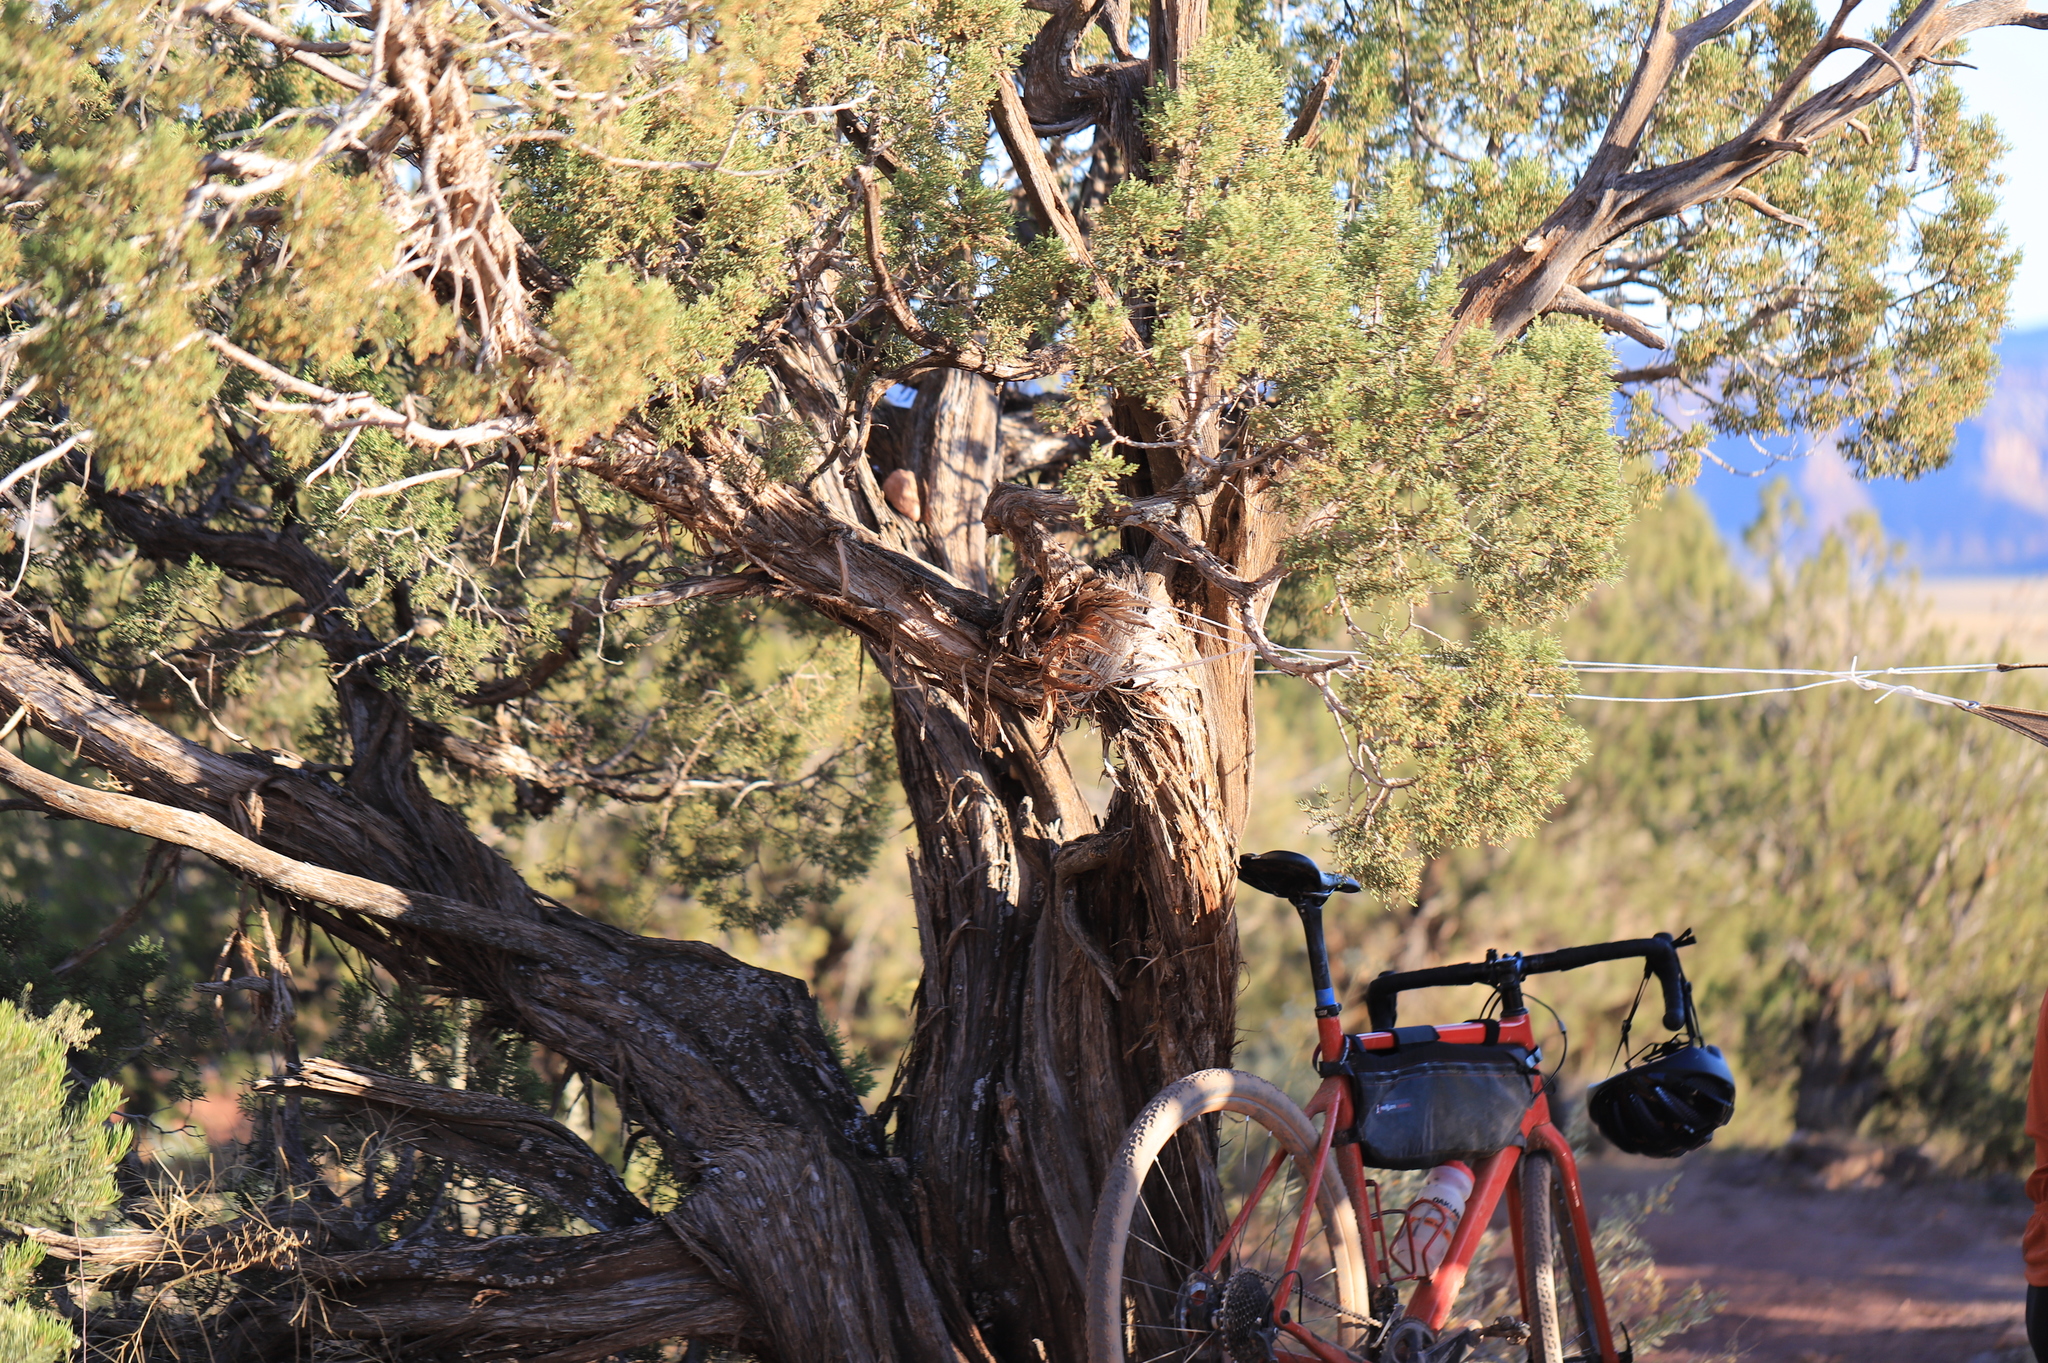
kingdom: Plantae
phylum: Tracheophyta
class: Pinopsida
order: Pinales
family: Cupressaceae
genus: Juniperus
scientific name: Juniperus osteosperma
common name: Utah juniper
